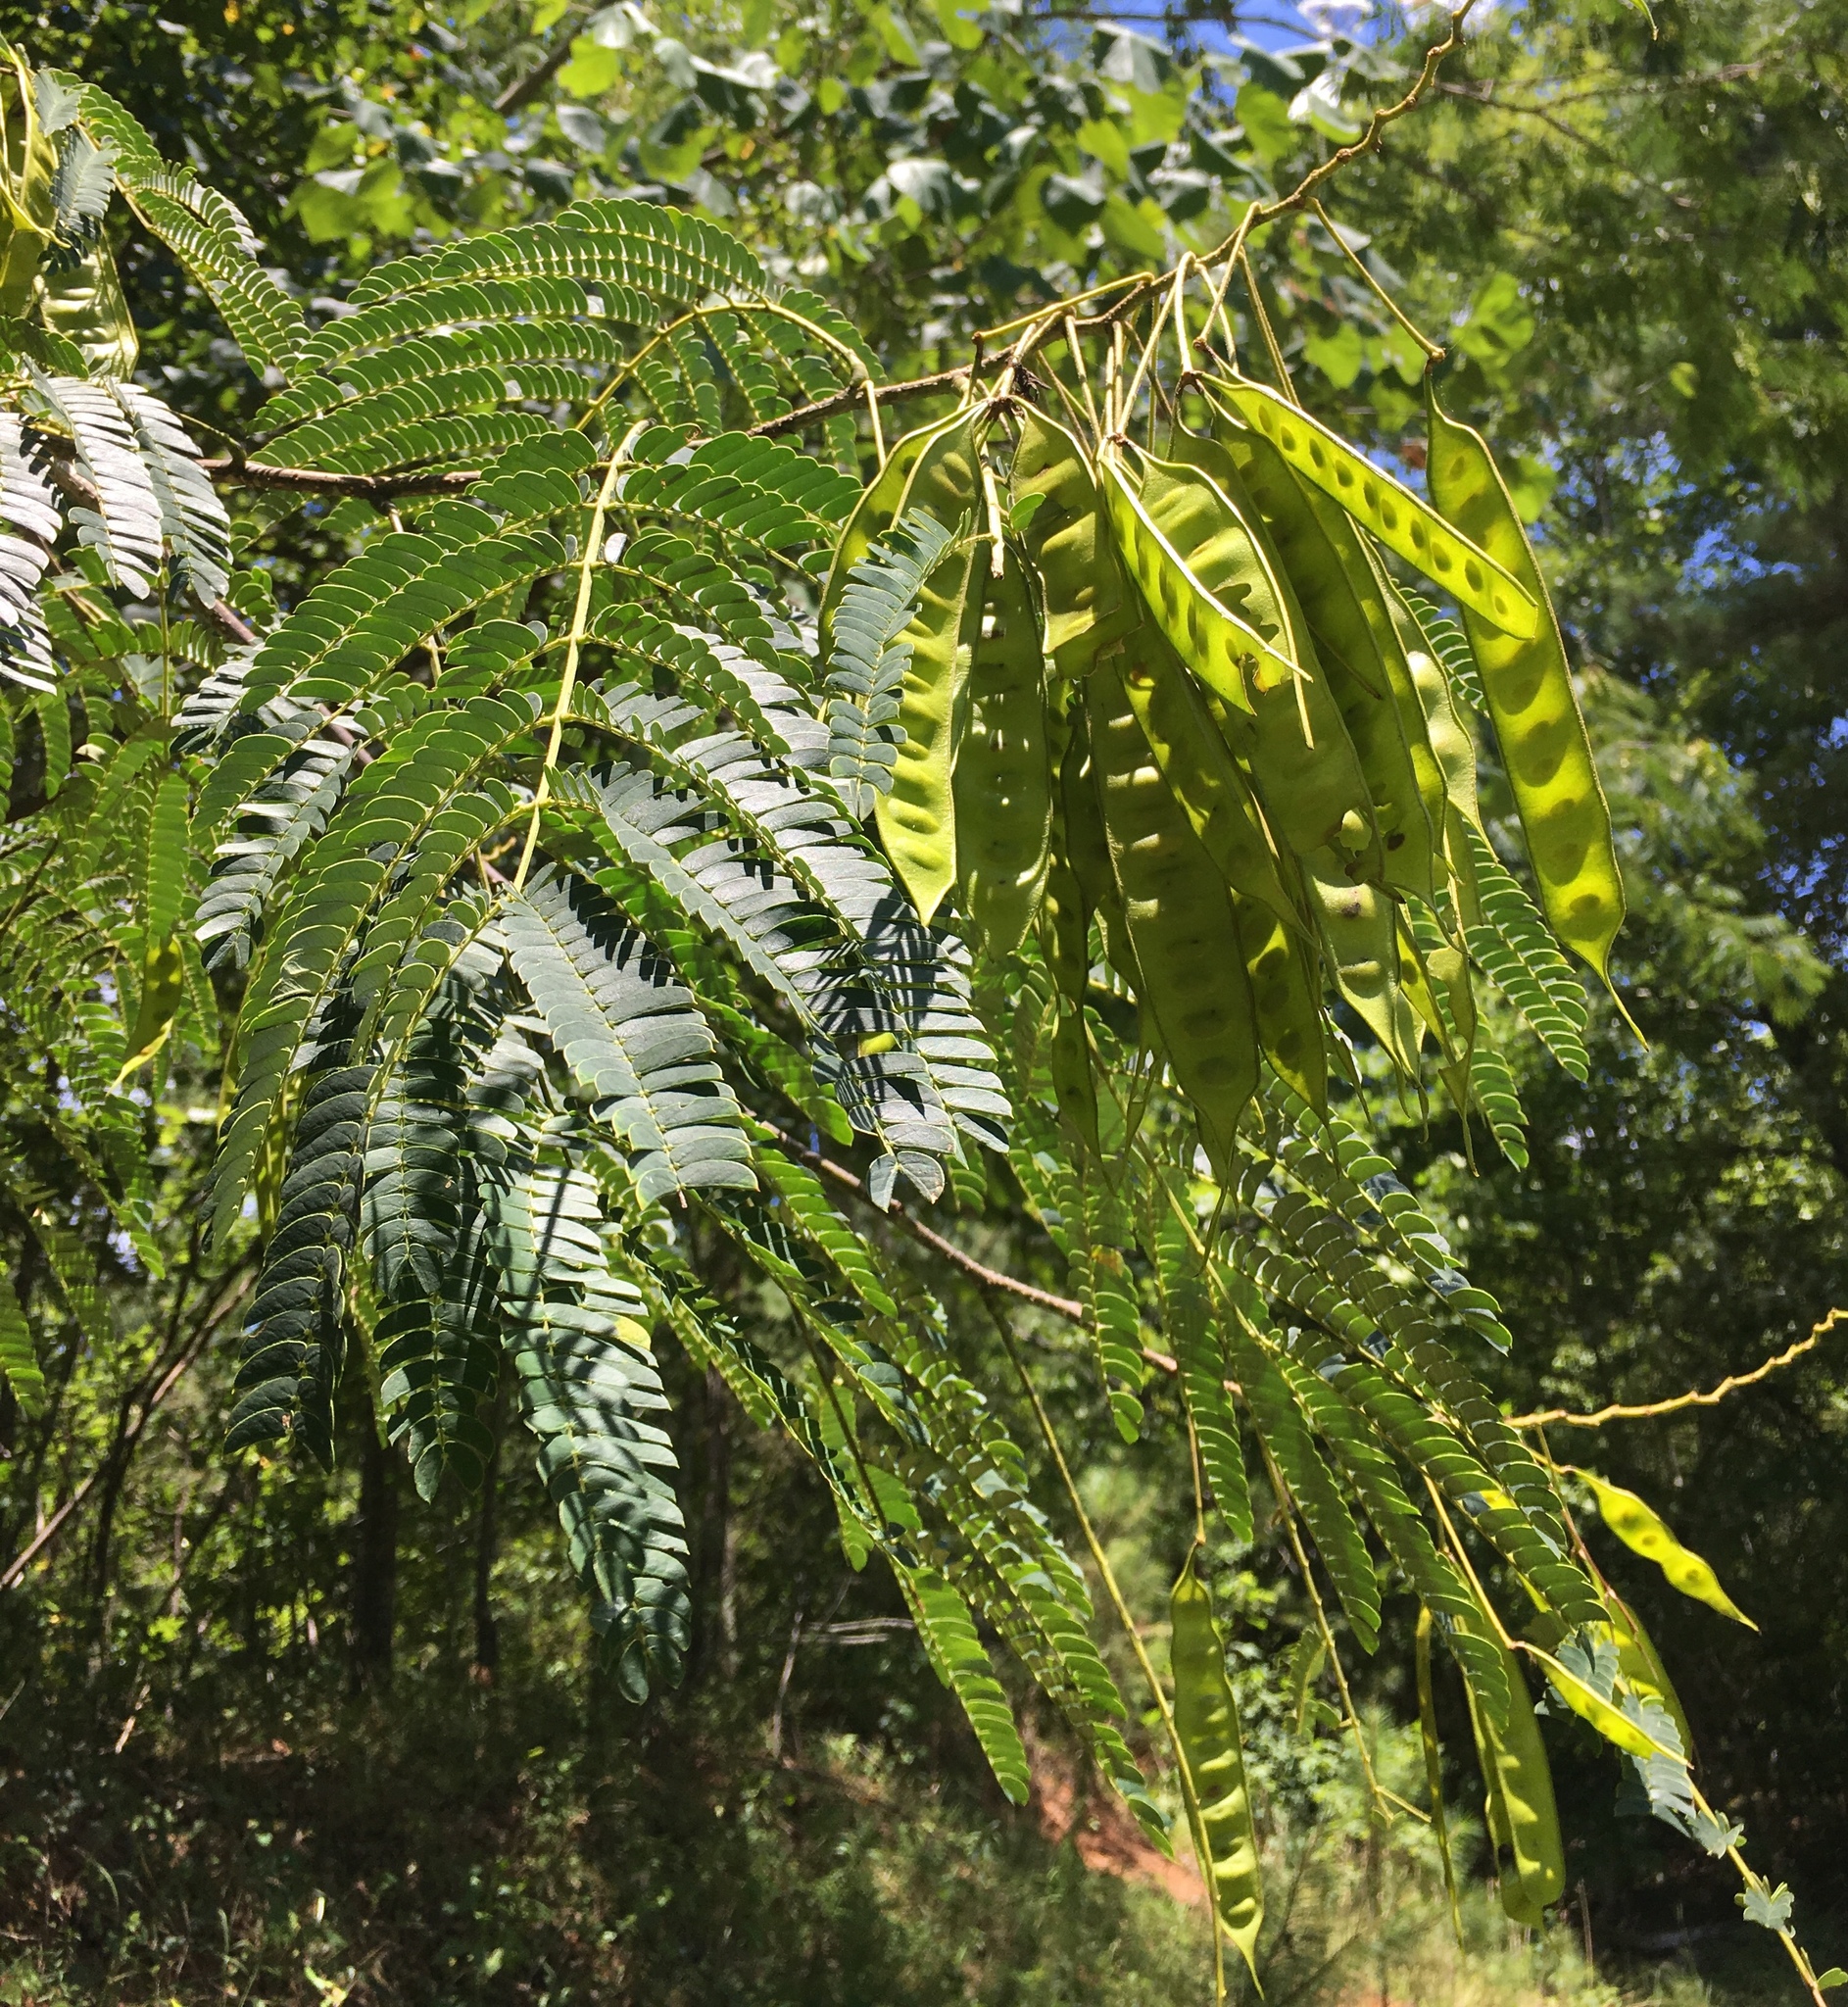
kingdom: Plantae
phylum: Tracheophyta
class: Magnoliopsida
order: Fabales
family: Fabaceae
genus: Albizia
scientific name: Albizia julibrissin
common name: Silktree
